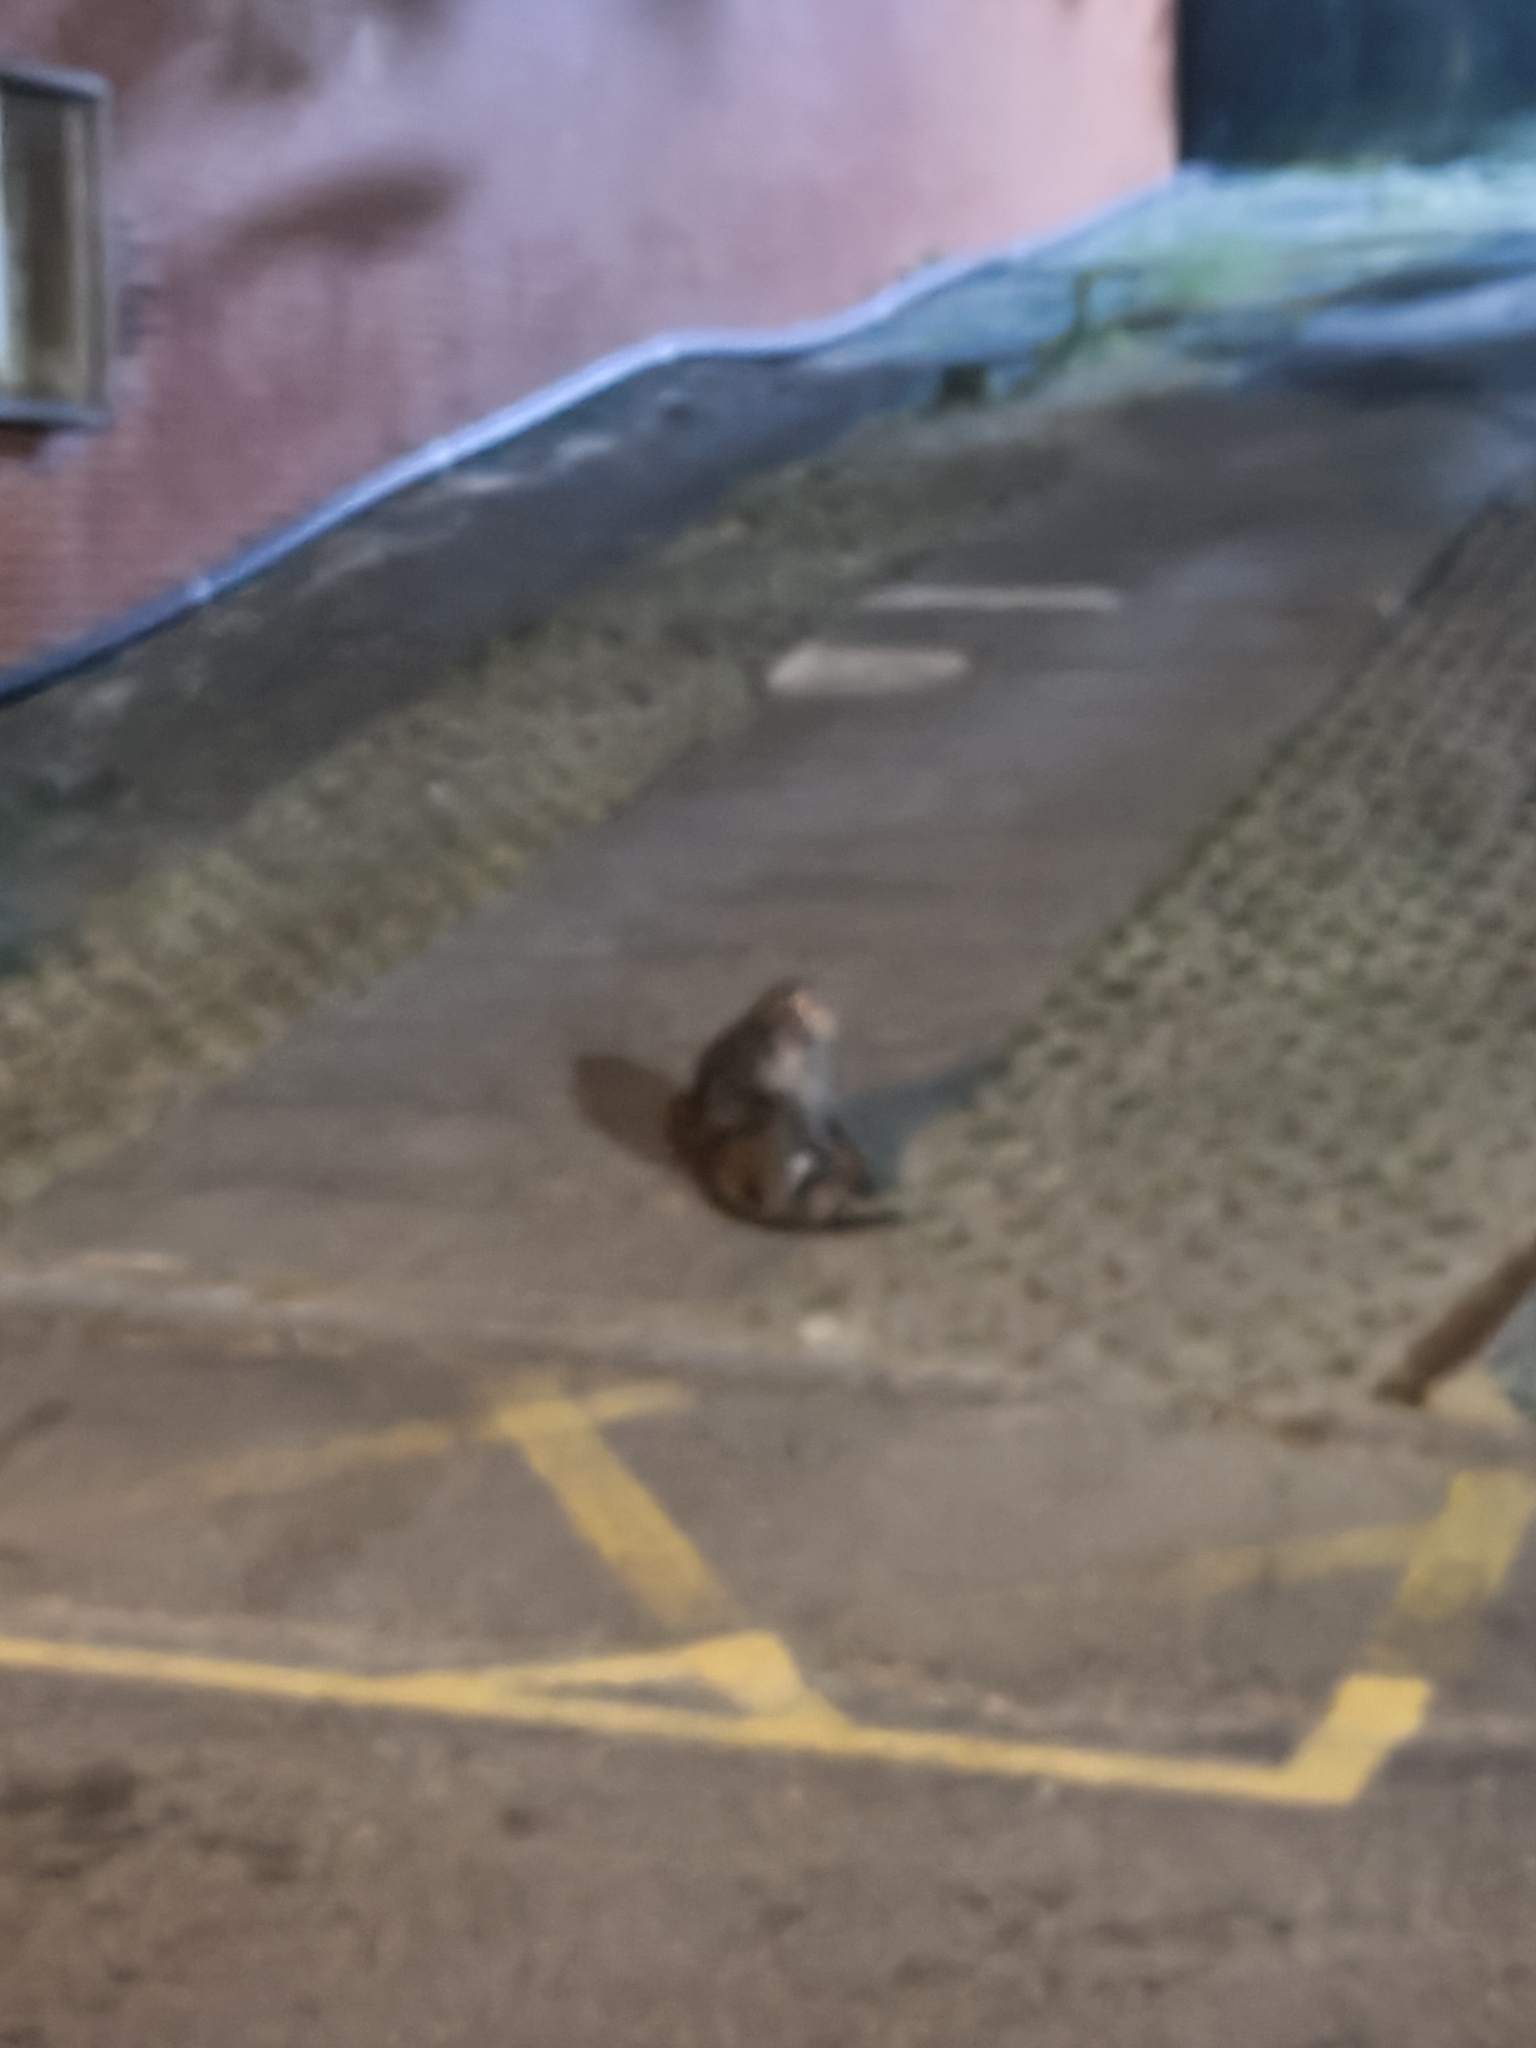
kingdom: Animalia
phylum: Chordata
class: Mammalia
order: Primates
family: Cercopithecidae
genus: Macaca
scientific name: Macaca cyclopis
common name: Formosan rock macaque
